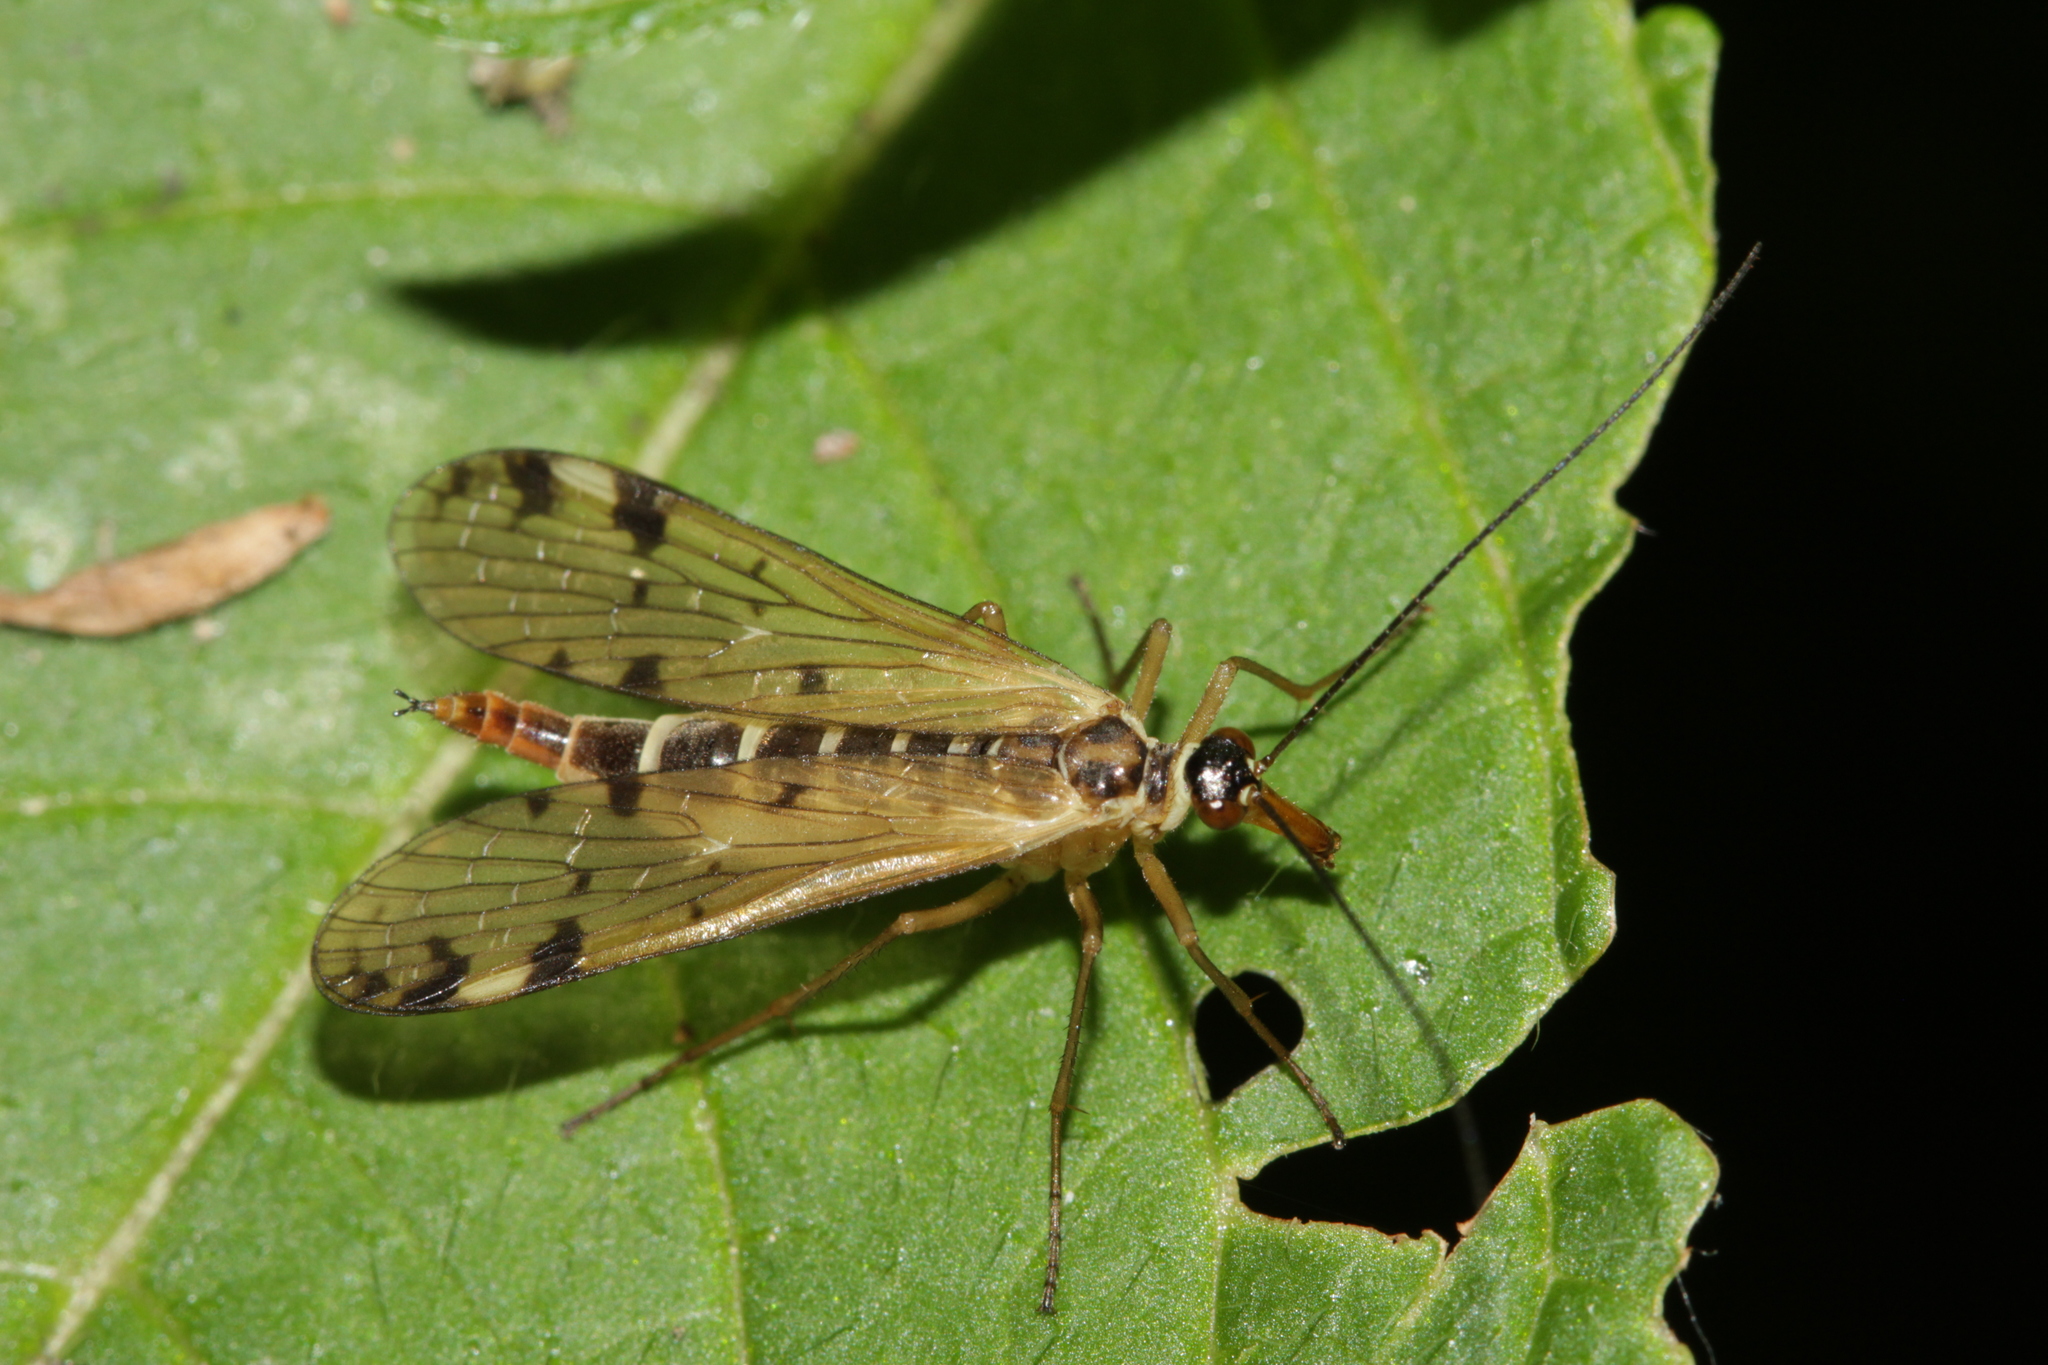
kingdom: Animalia
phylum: Arthropoda
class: Insecta
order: Mecoptera
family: Panorpidae
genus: Panorpa
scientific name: Panorpa alpina
